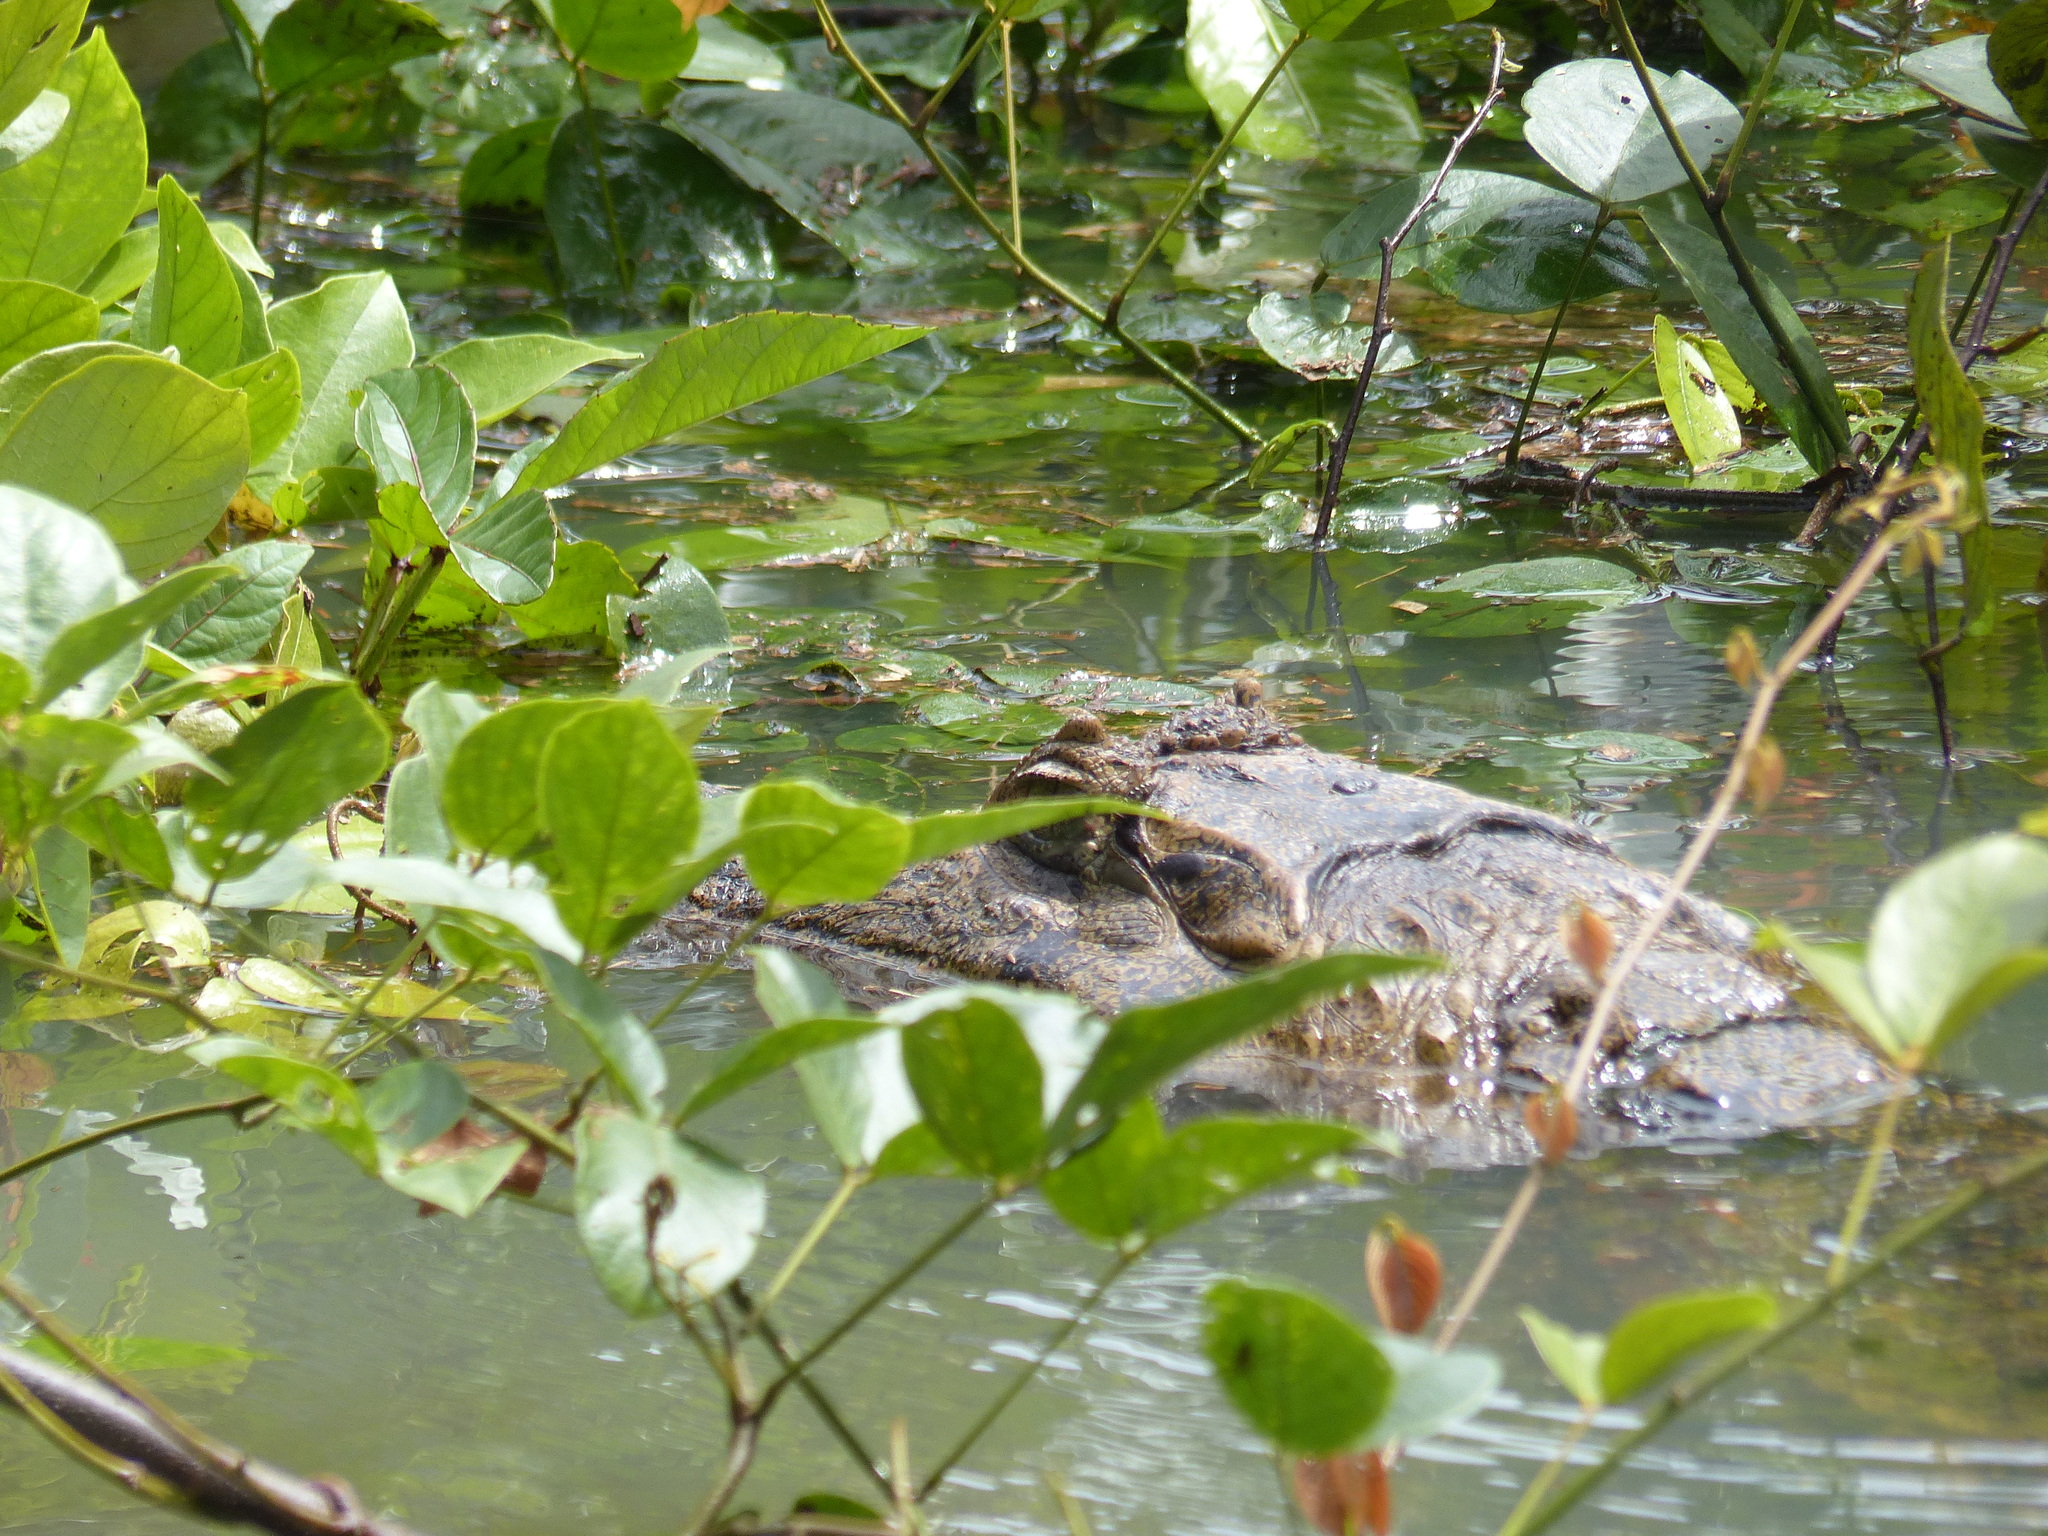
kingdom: Animalia
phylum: Chordata
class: Crocodylia
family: Alligatoridae
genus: Caiman
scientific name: Caiman crocodilus
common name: Common caiman
